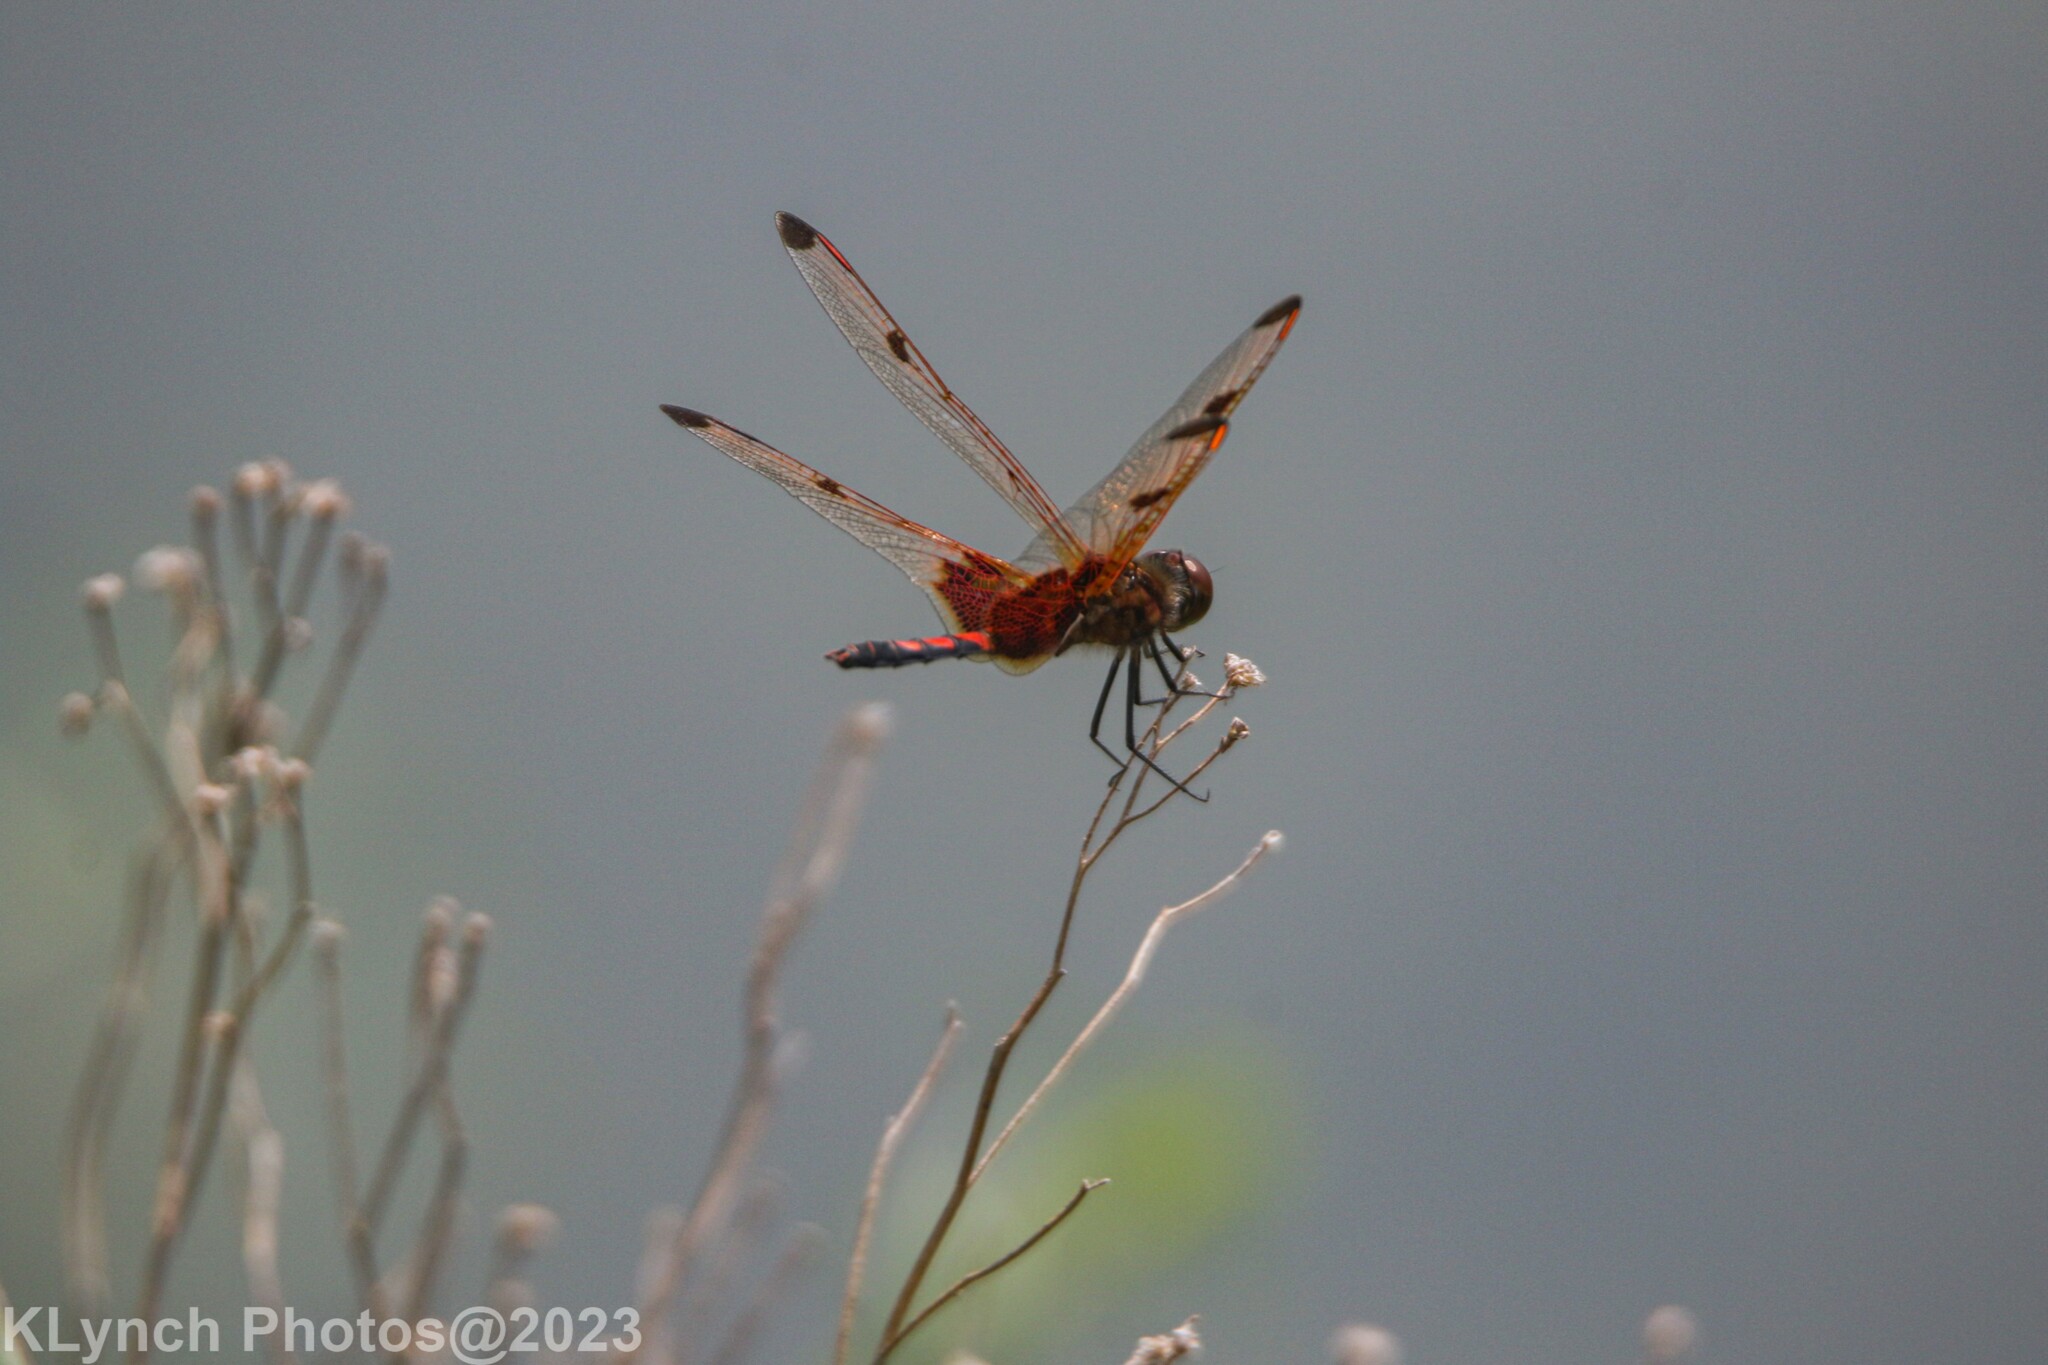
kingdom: Animalia
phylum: Arthropoda
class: Insecta
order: Odonata
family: Libellulidae
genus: Celithemis
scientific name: Celithemis elisa
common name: Calico pennant
